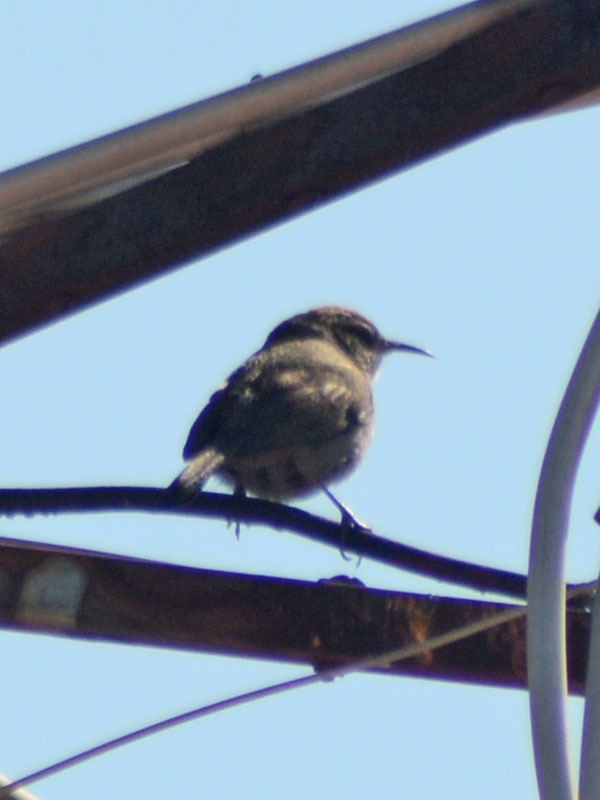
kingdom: Animalia
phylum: Chordata
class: Aves
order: Passeriformes
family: Troglodytidae
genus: Thryomanes
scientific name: Thryomanes bewickii
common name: Bewick's wren
